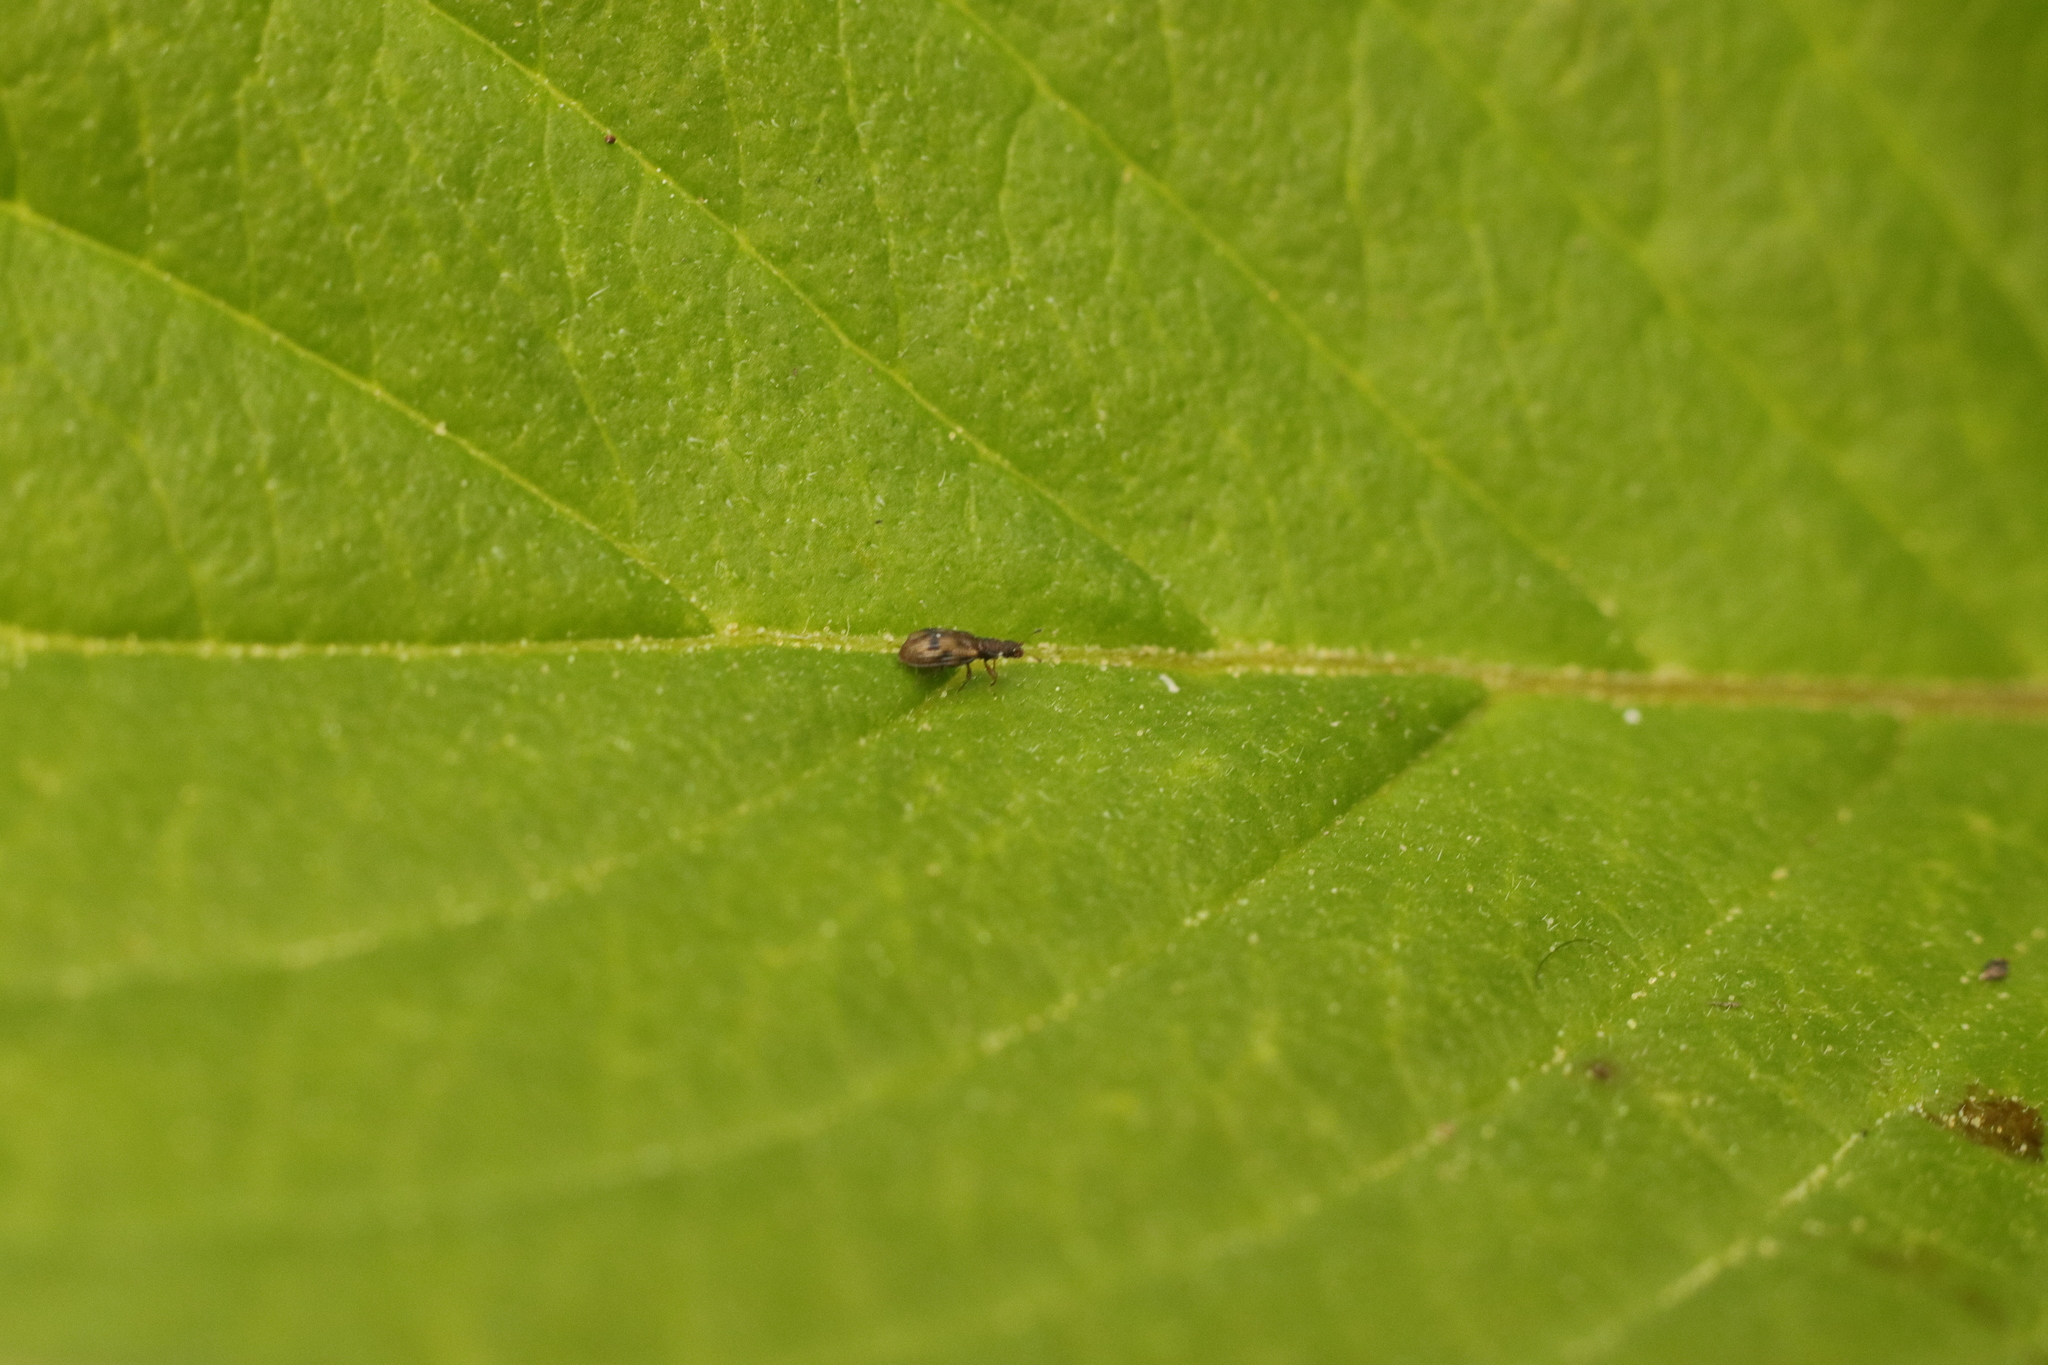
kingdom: Animalia
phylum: Arthropoda
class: Insecta
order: Coleoptera
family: Latridiidae
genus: Cartodere
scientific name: Cartodere bifasciata
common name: Plaster beetle
